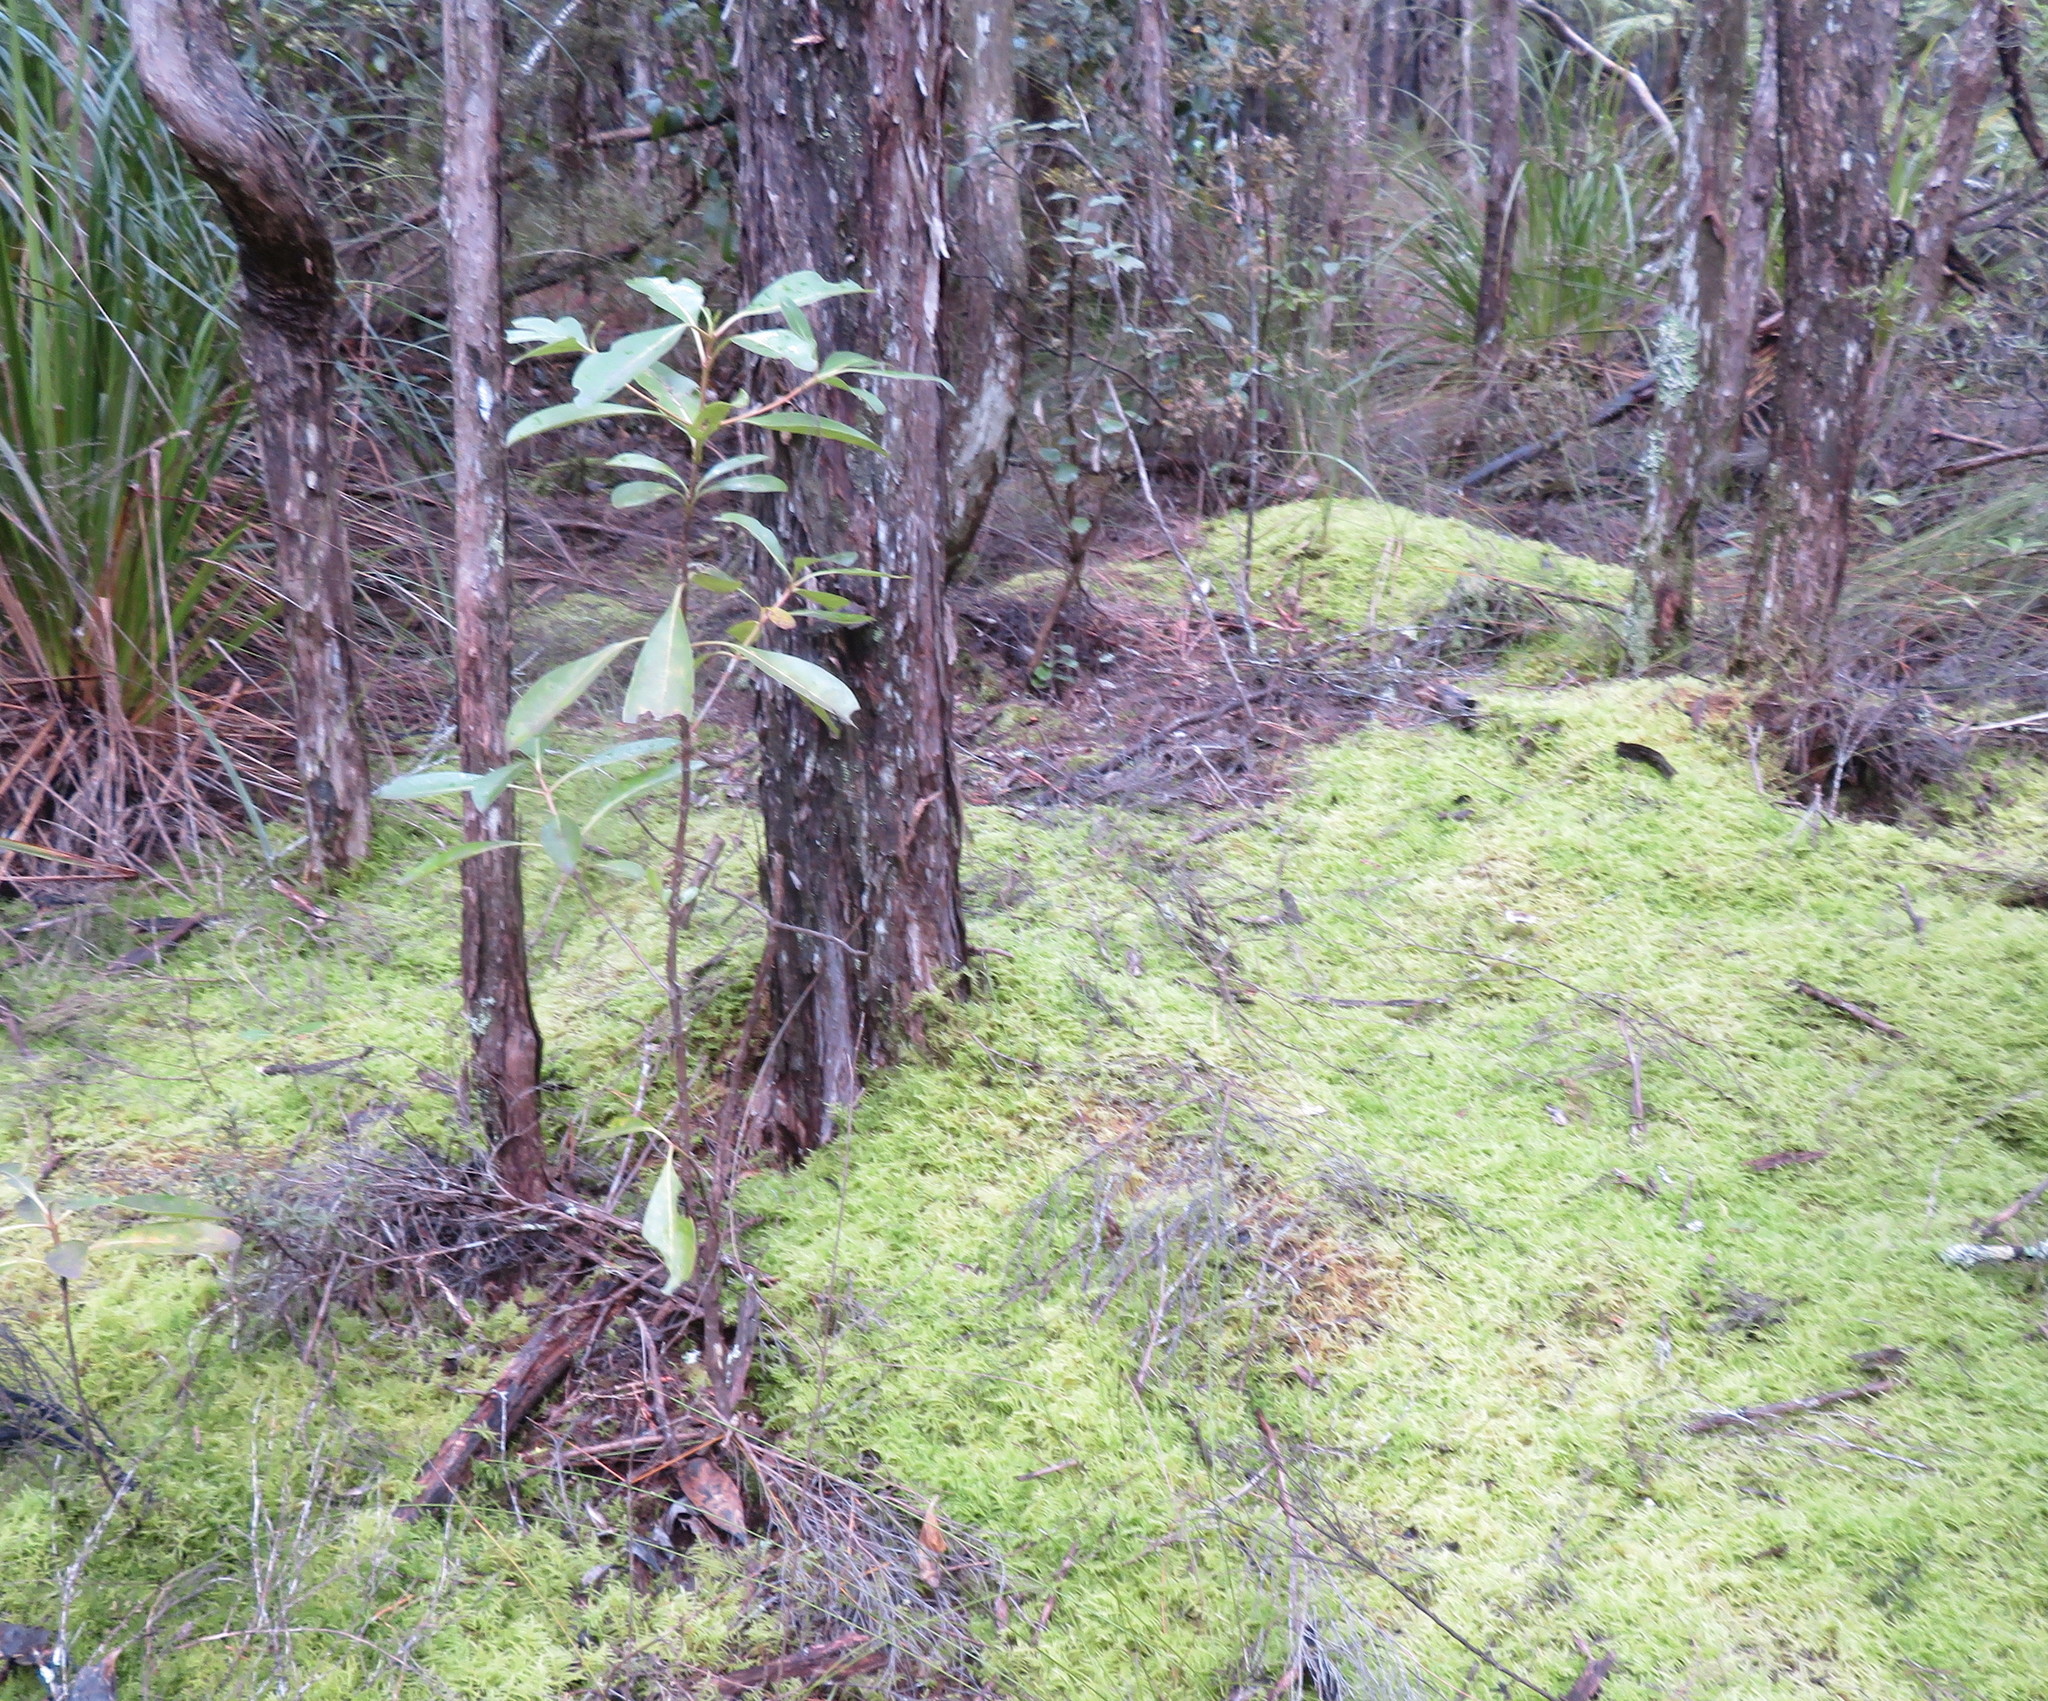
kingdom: Plantae
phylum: Tracheophyta
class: Magnoliopsida
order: Gentianales
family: Rubiaceae
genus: Coprosma
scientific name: Coprosma lucida
